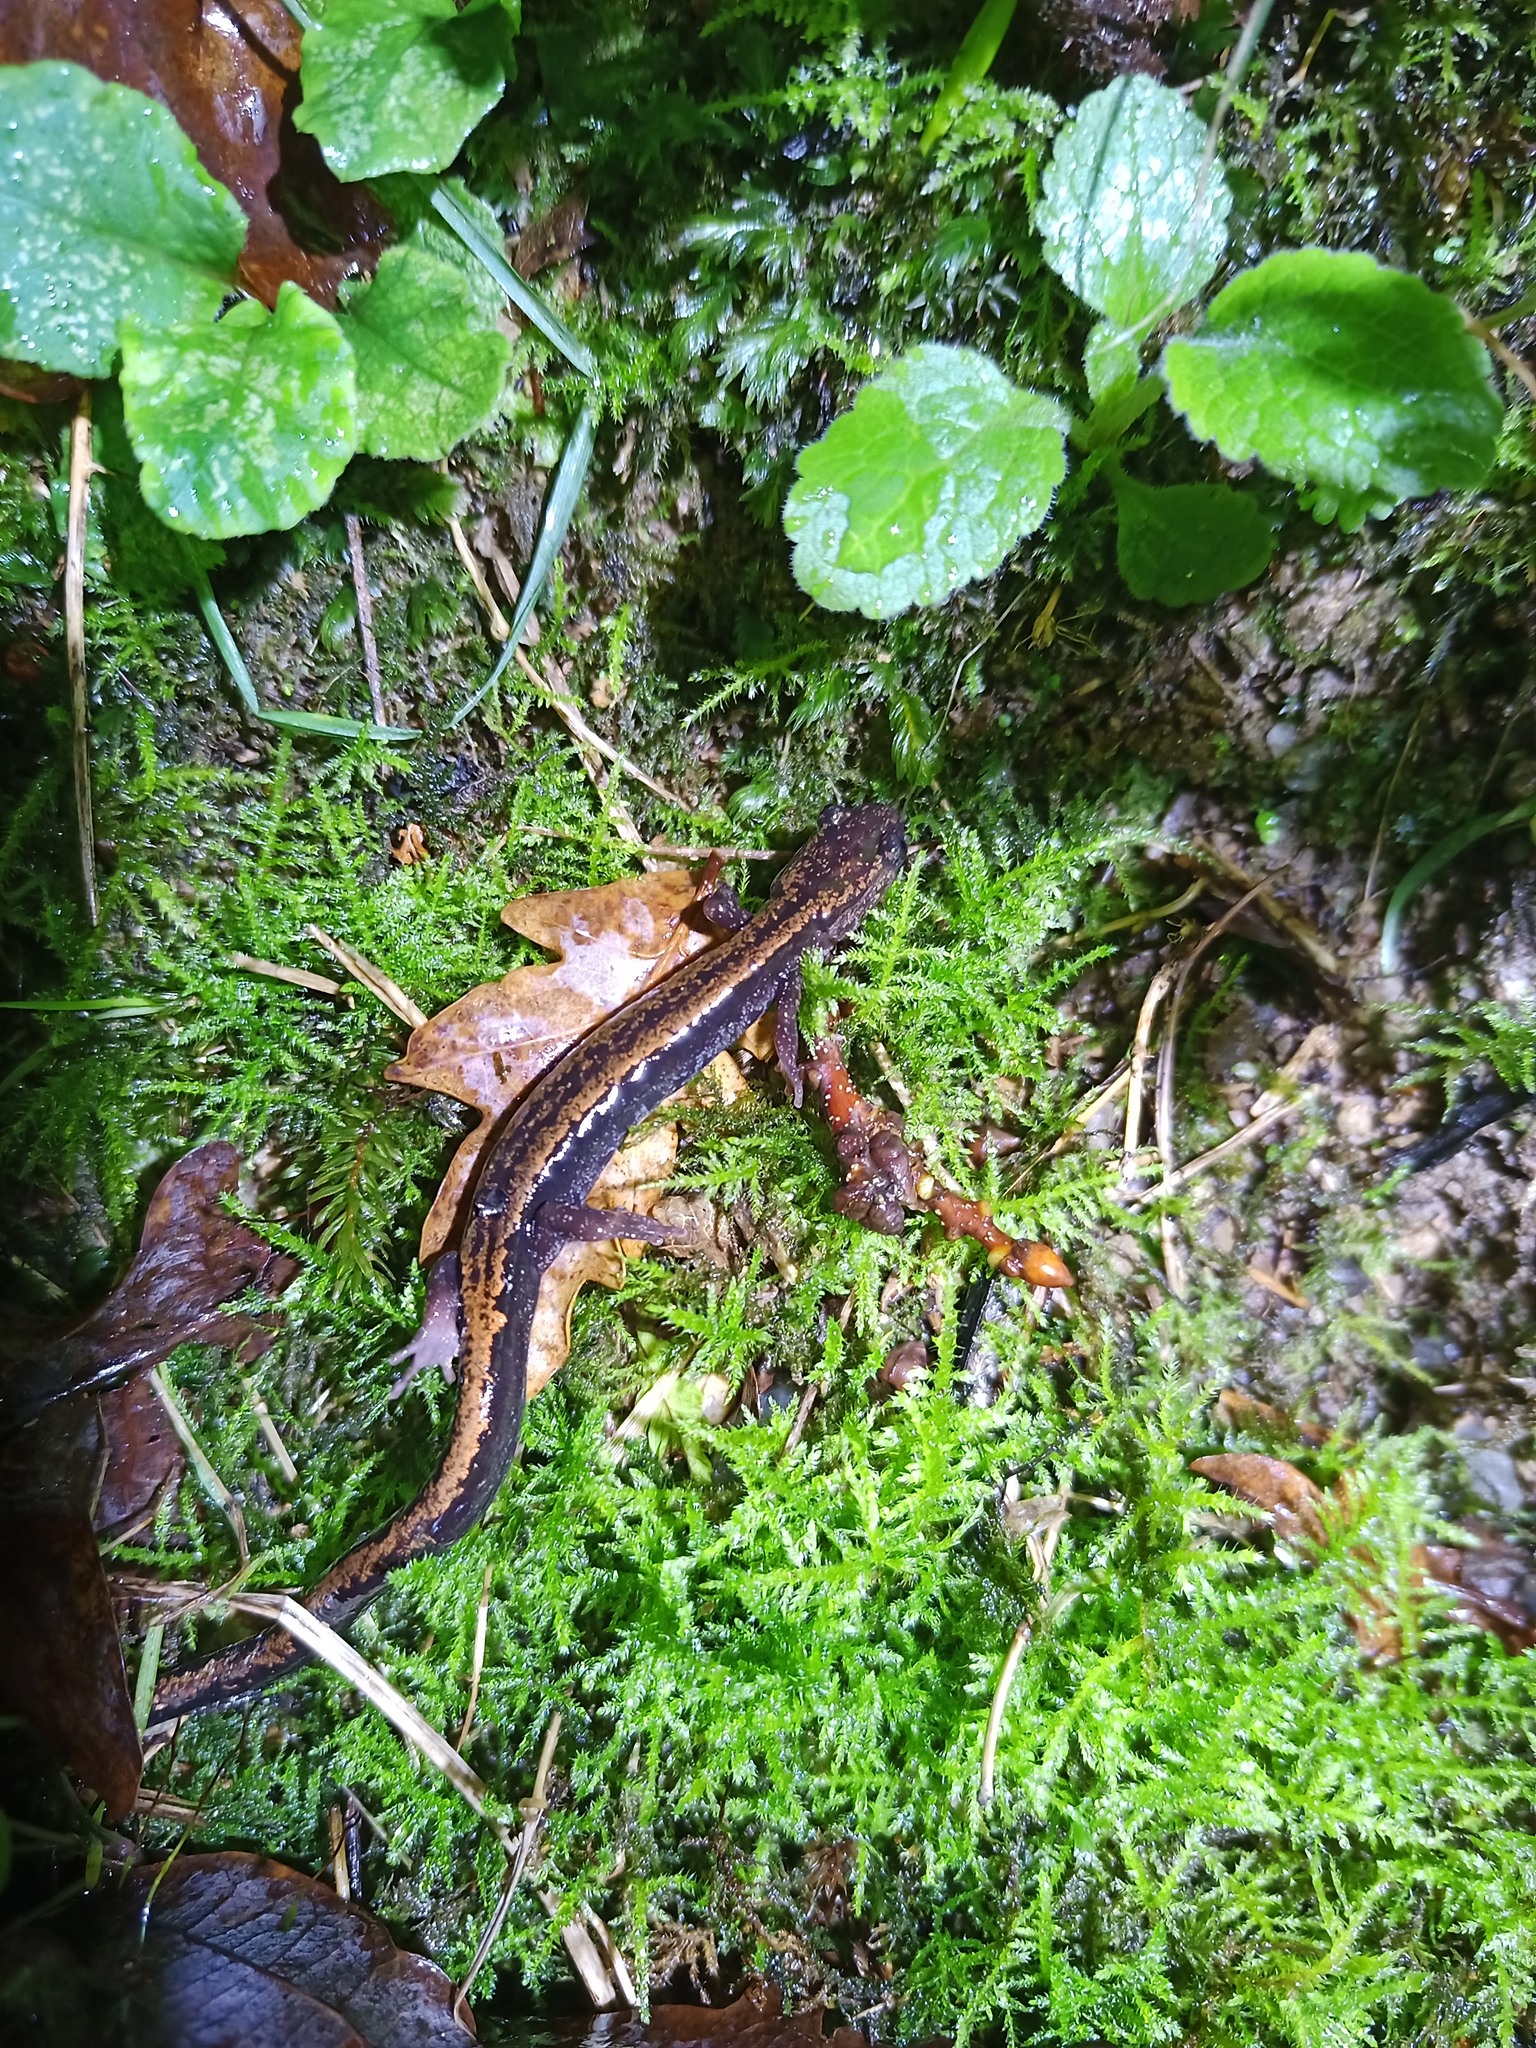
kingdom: Animalia
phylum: Chordata
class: Amphibia
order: Caudata
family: Salamandridae
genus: Chioglossa
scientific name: Chioglossa lusitanica
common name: Gold-striped salamander
